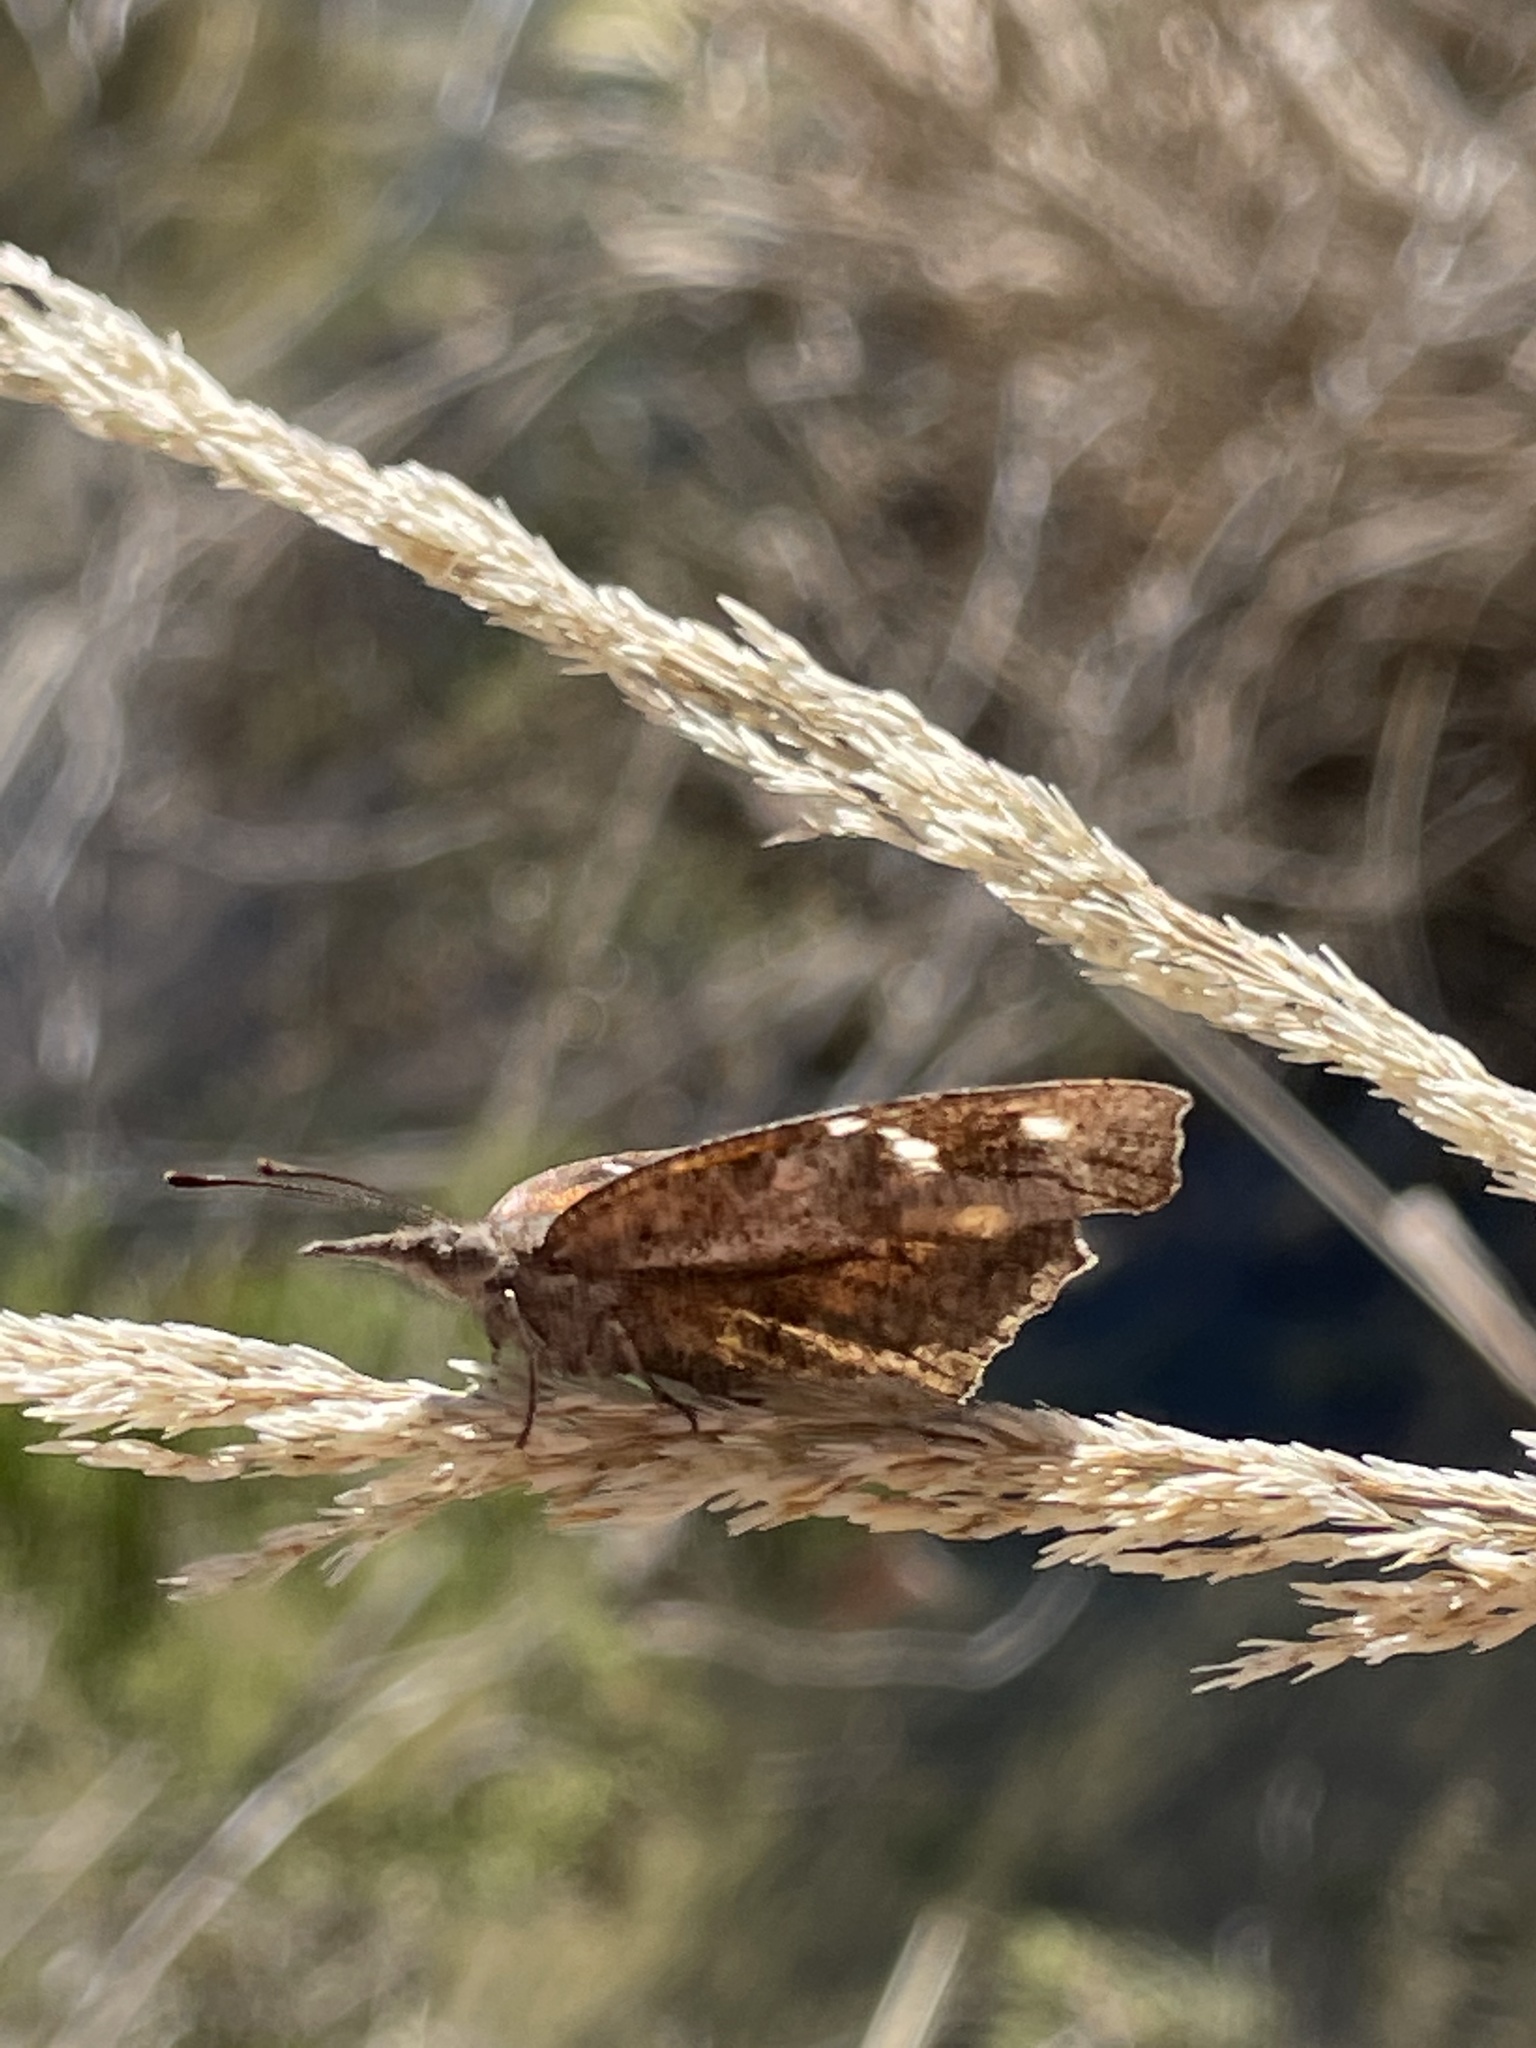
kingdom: Animalia
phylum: Arthropoda
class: Insecta
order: Lepidoptera
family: Nymphalidae
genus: Libytheana
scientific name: Libytheana carinenta
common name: American snout
